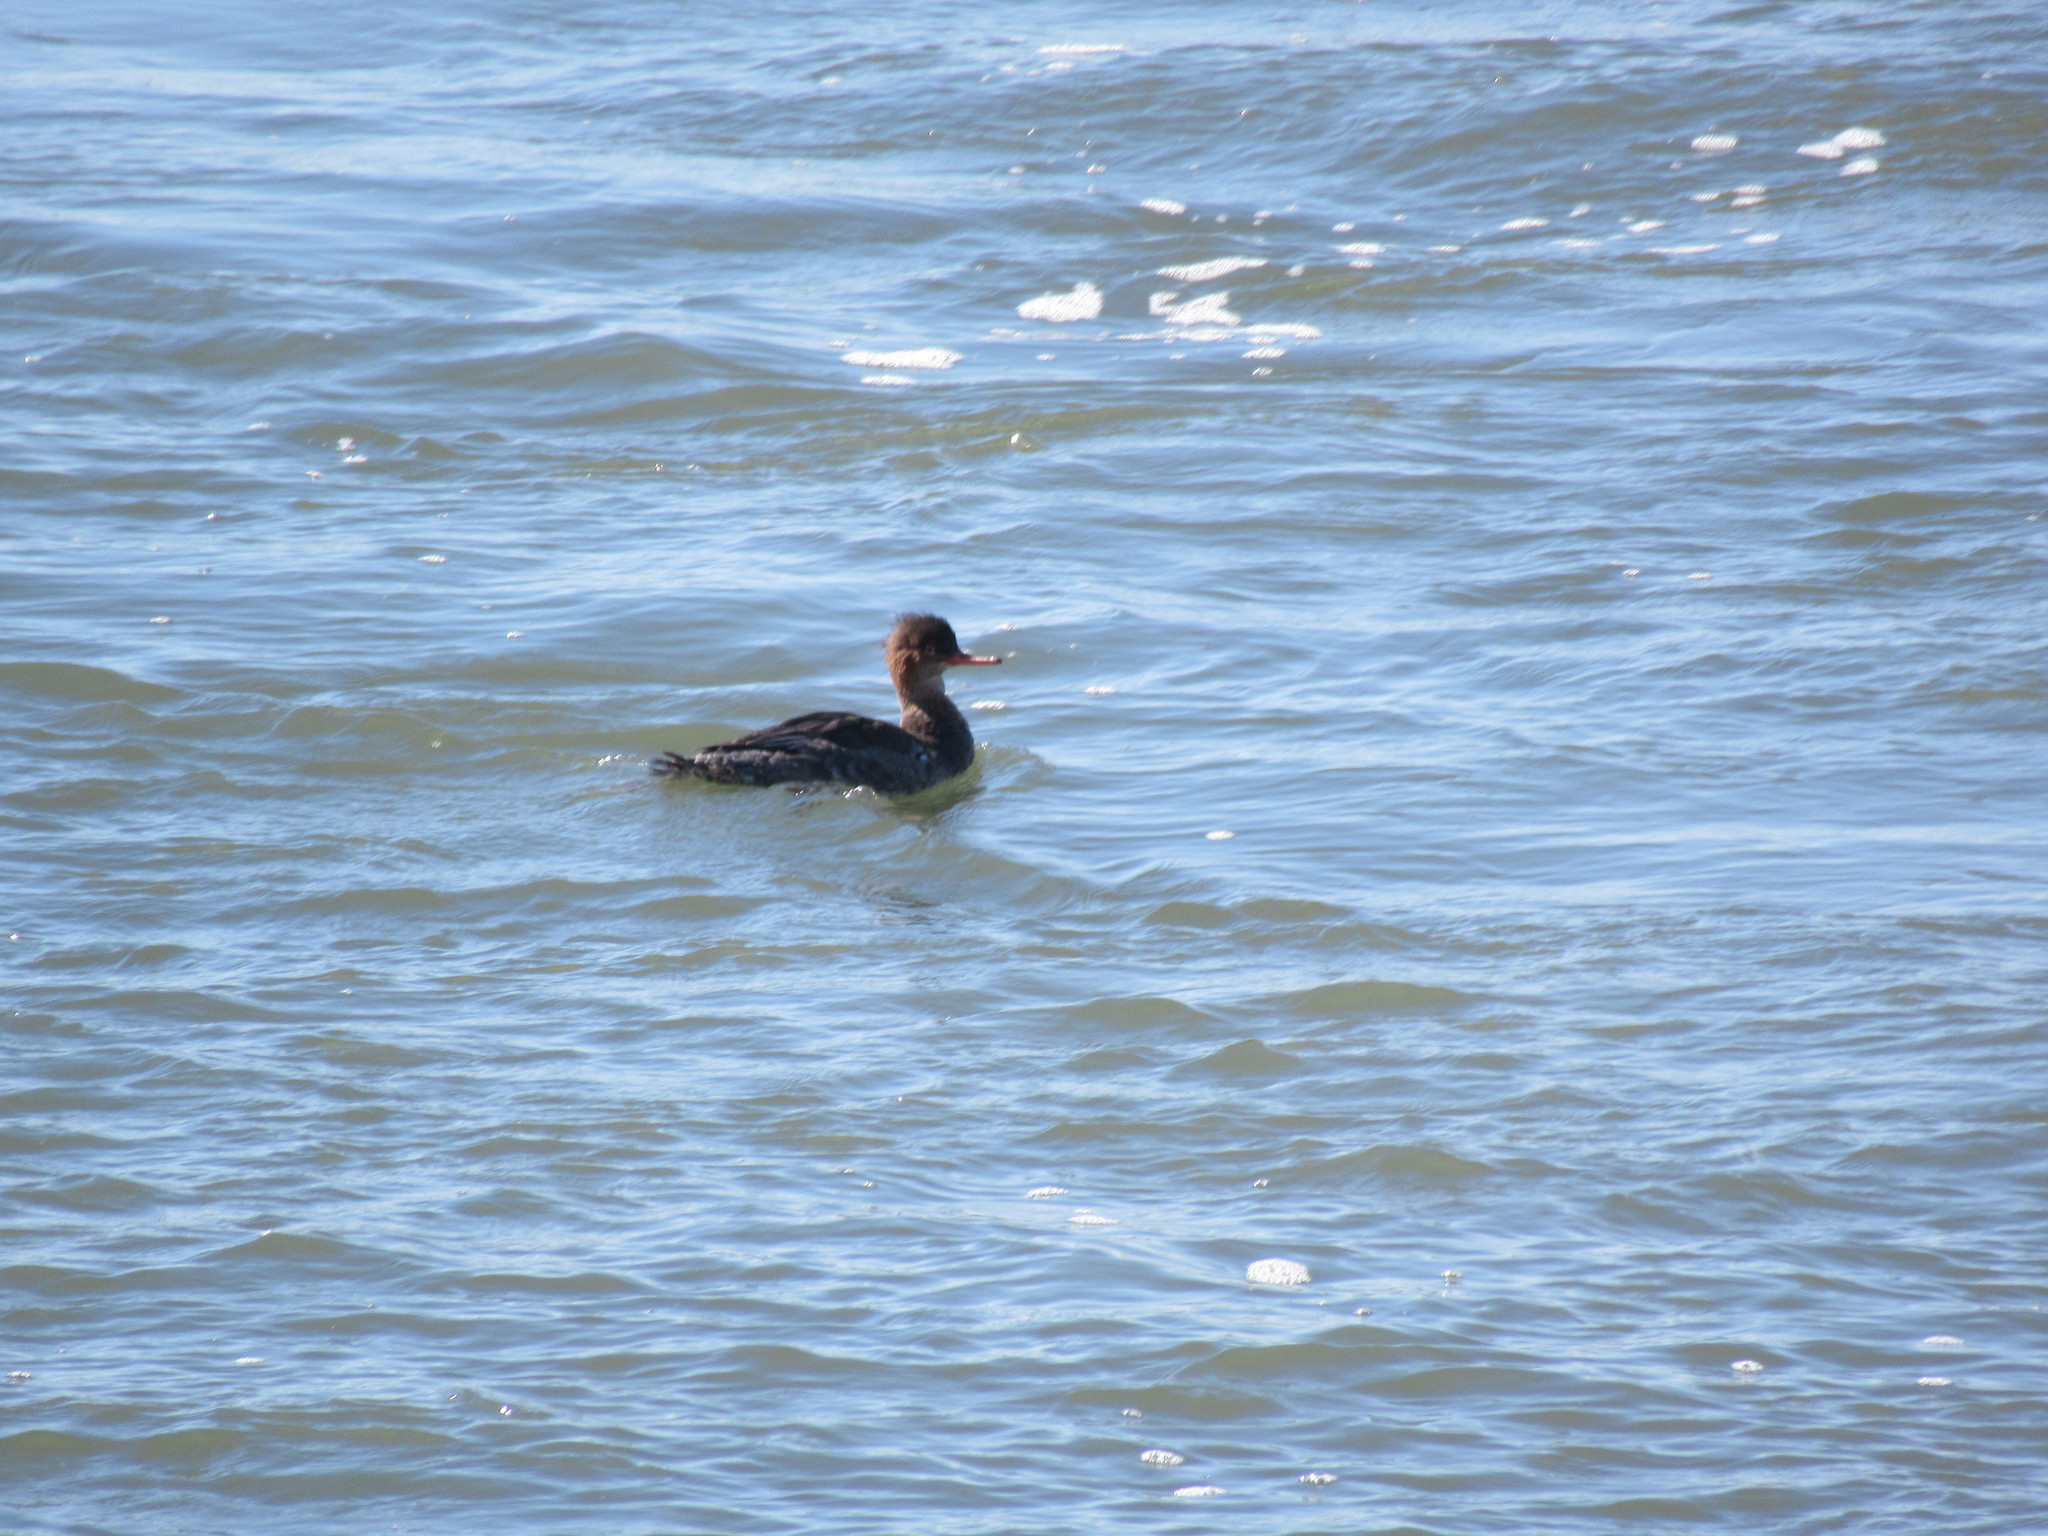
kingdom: Animalia
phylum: Chordata
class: Aves
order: Anseriformes
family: Anatidae
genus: Mergus
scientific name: Mergus serrator
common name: Red-breasted merganser
